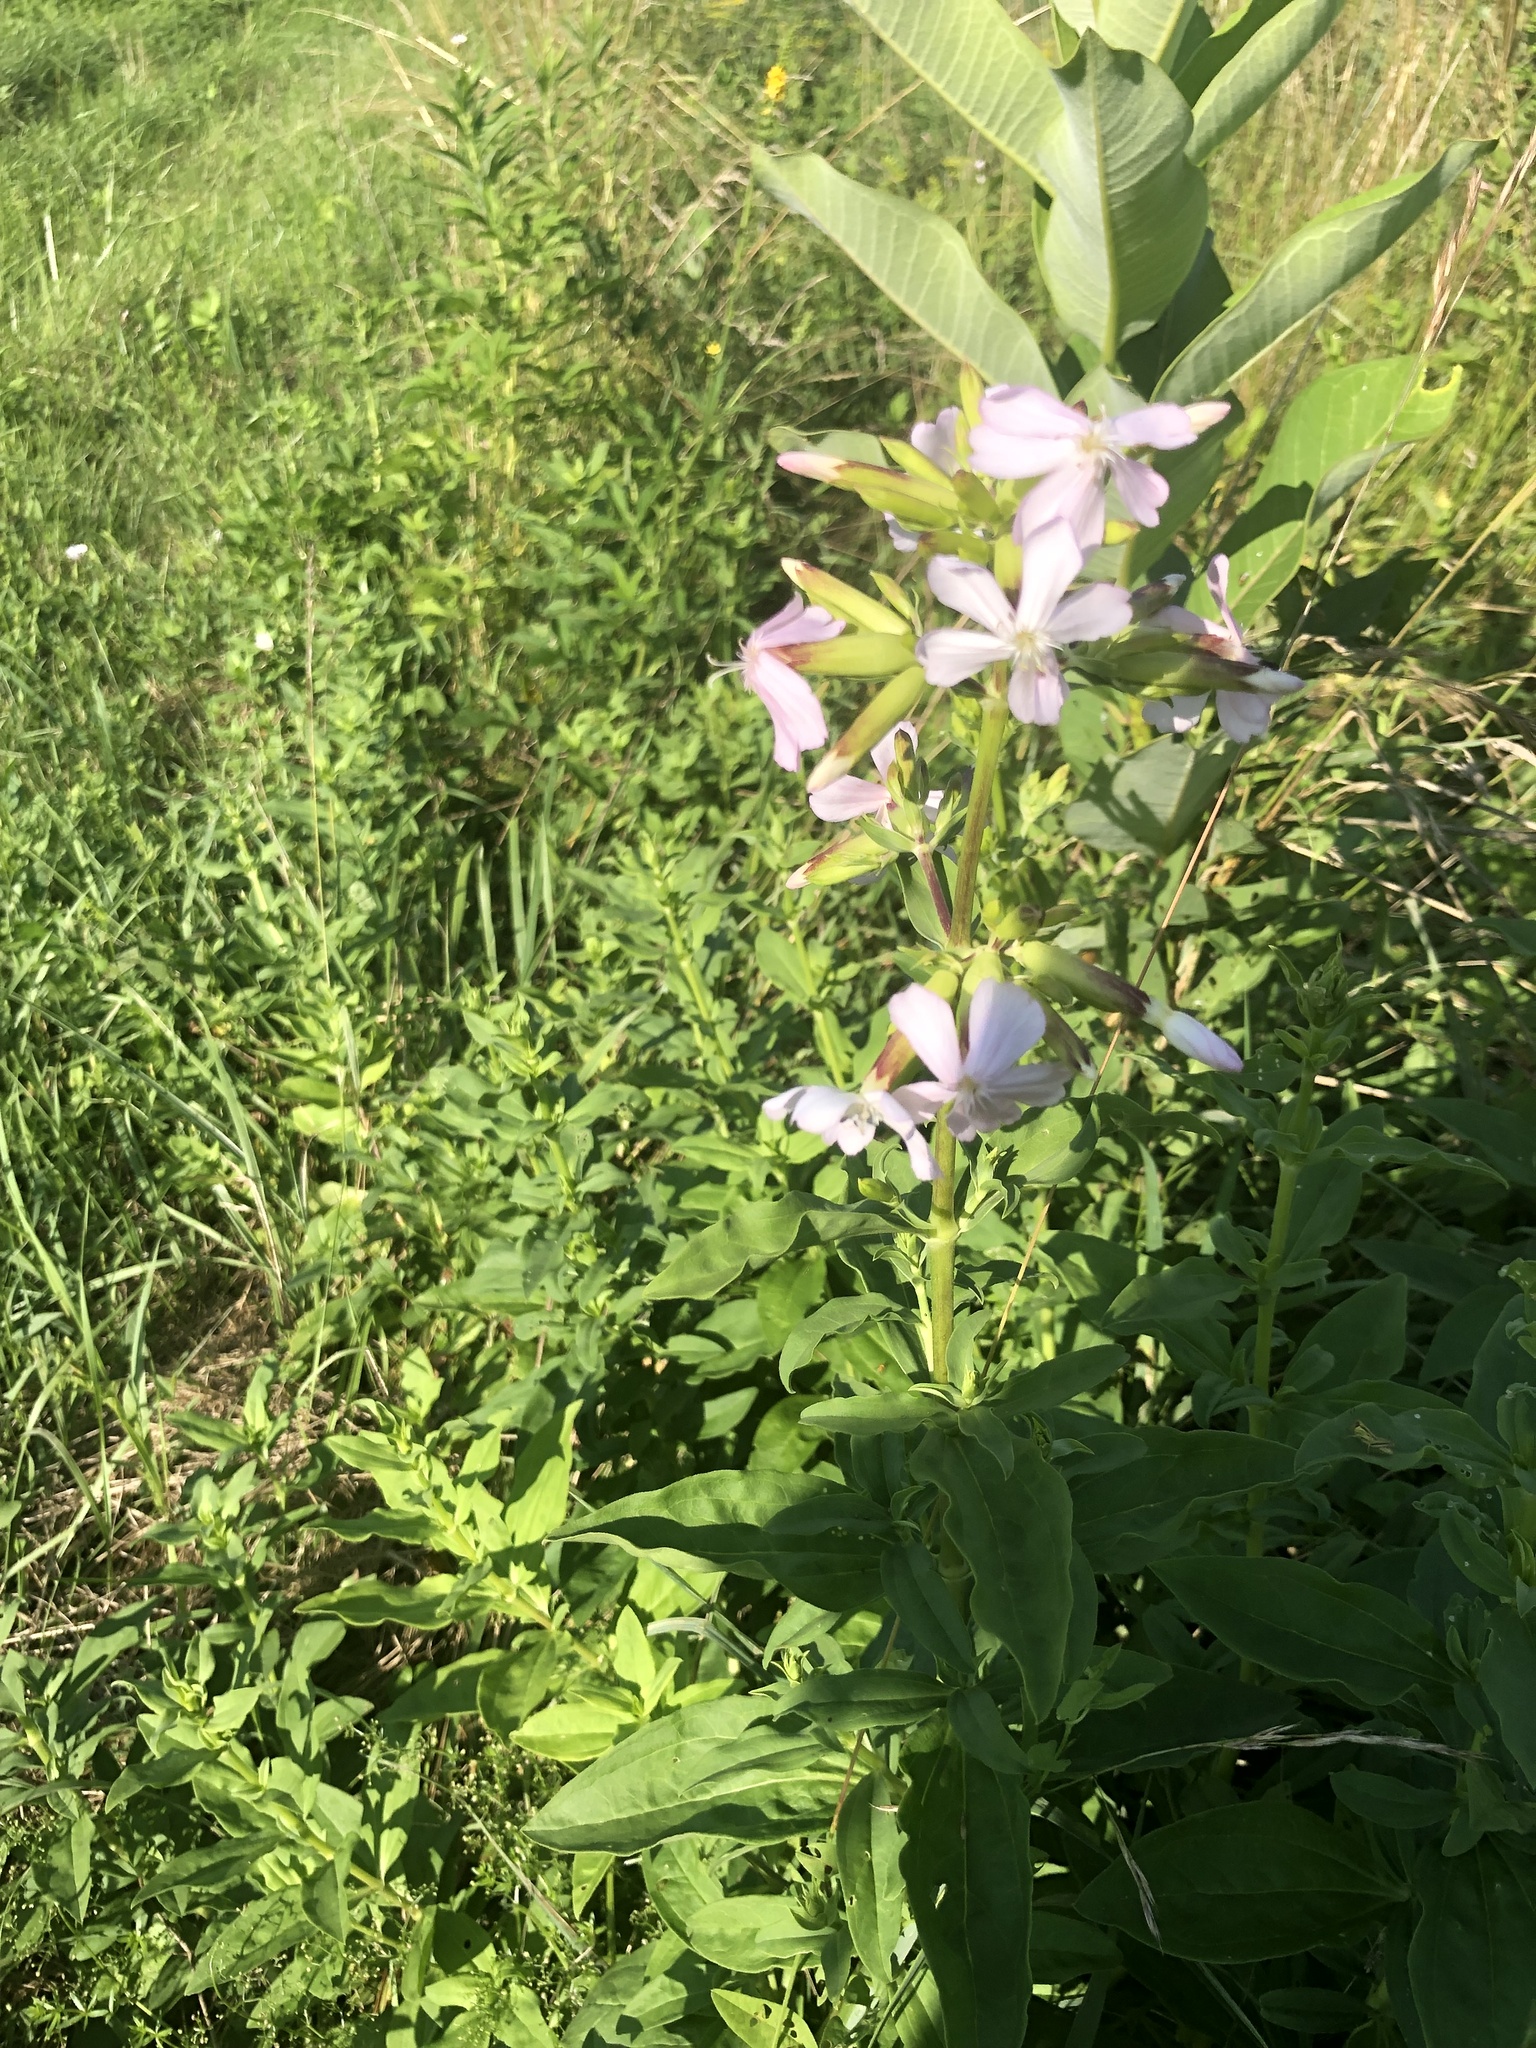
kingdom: Plantae
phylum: Tracheophyta
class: Magnoliopsida
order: Caryophyllales
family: Caryophyllaceae
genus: Saponaria
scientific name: Saponaria officinalis
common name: Soapwort
